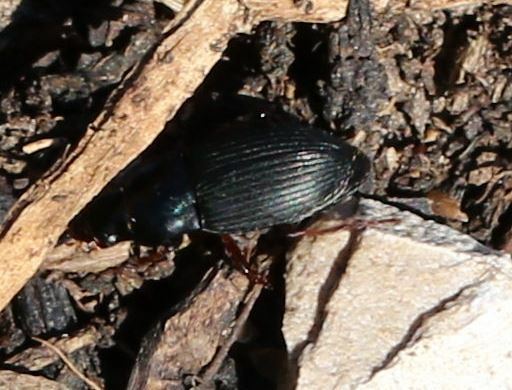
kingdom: Animalia
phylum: Arthropoda
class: Insecta
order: Coleoptera
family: Carabidae
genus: Harpalus
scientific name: Harpalus rubripes
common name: Red-legged harp ground beetle
